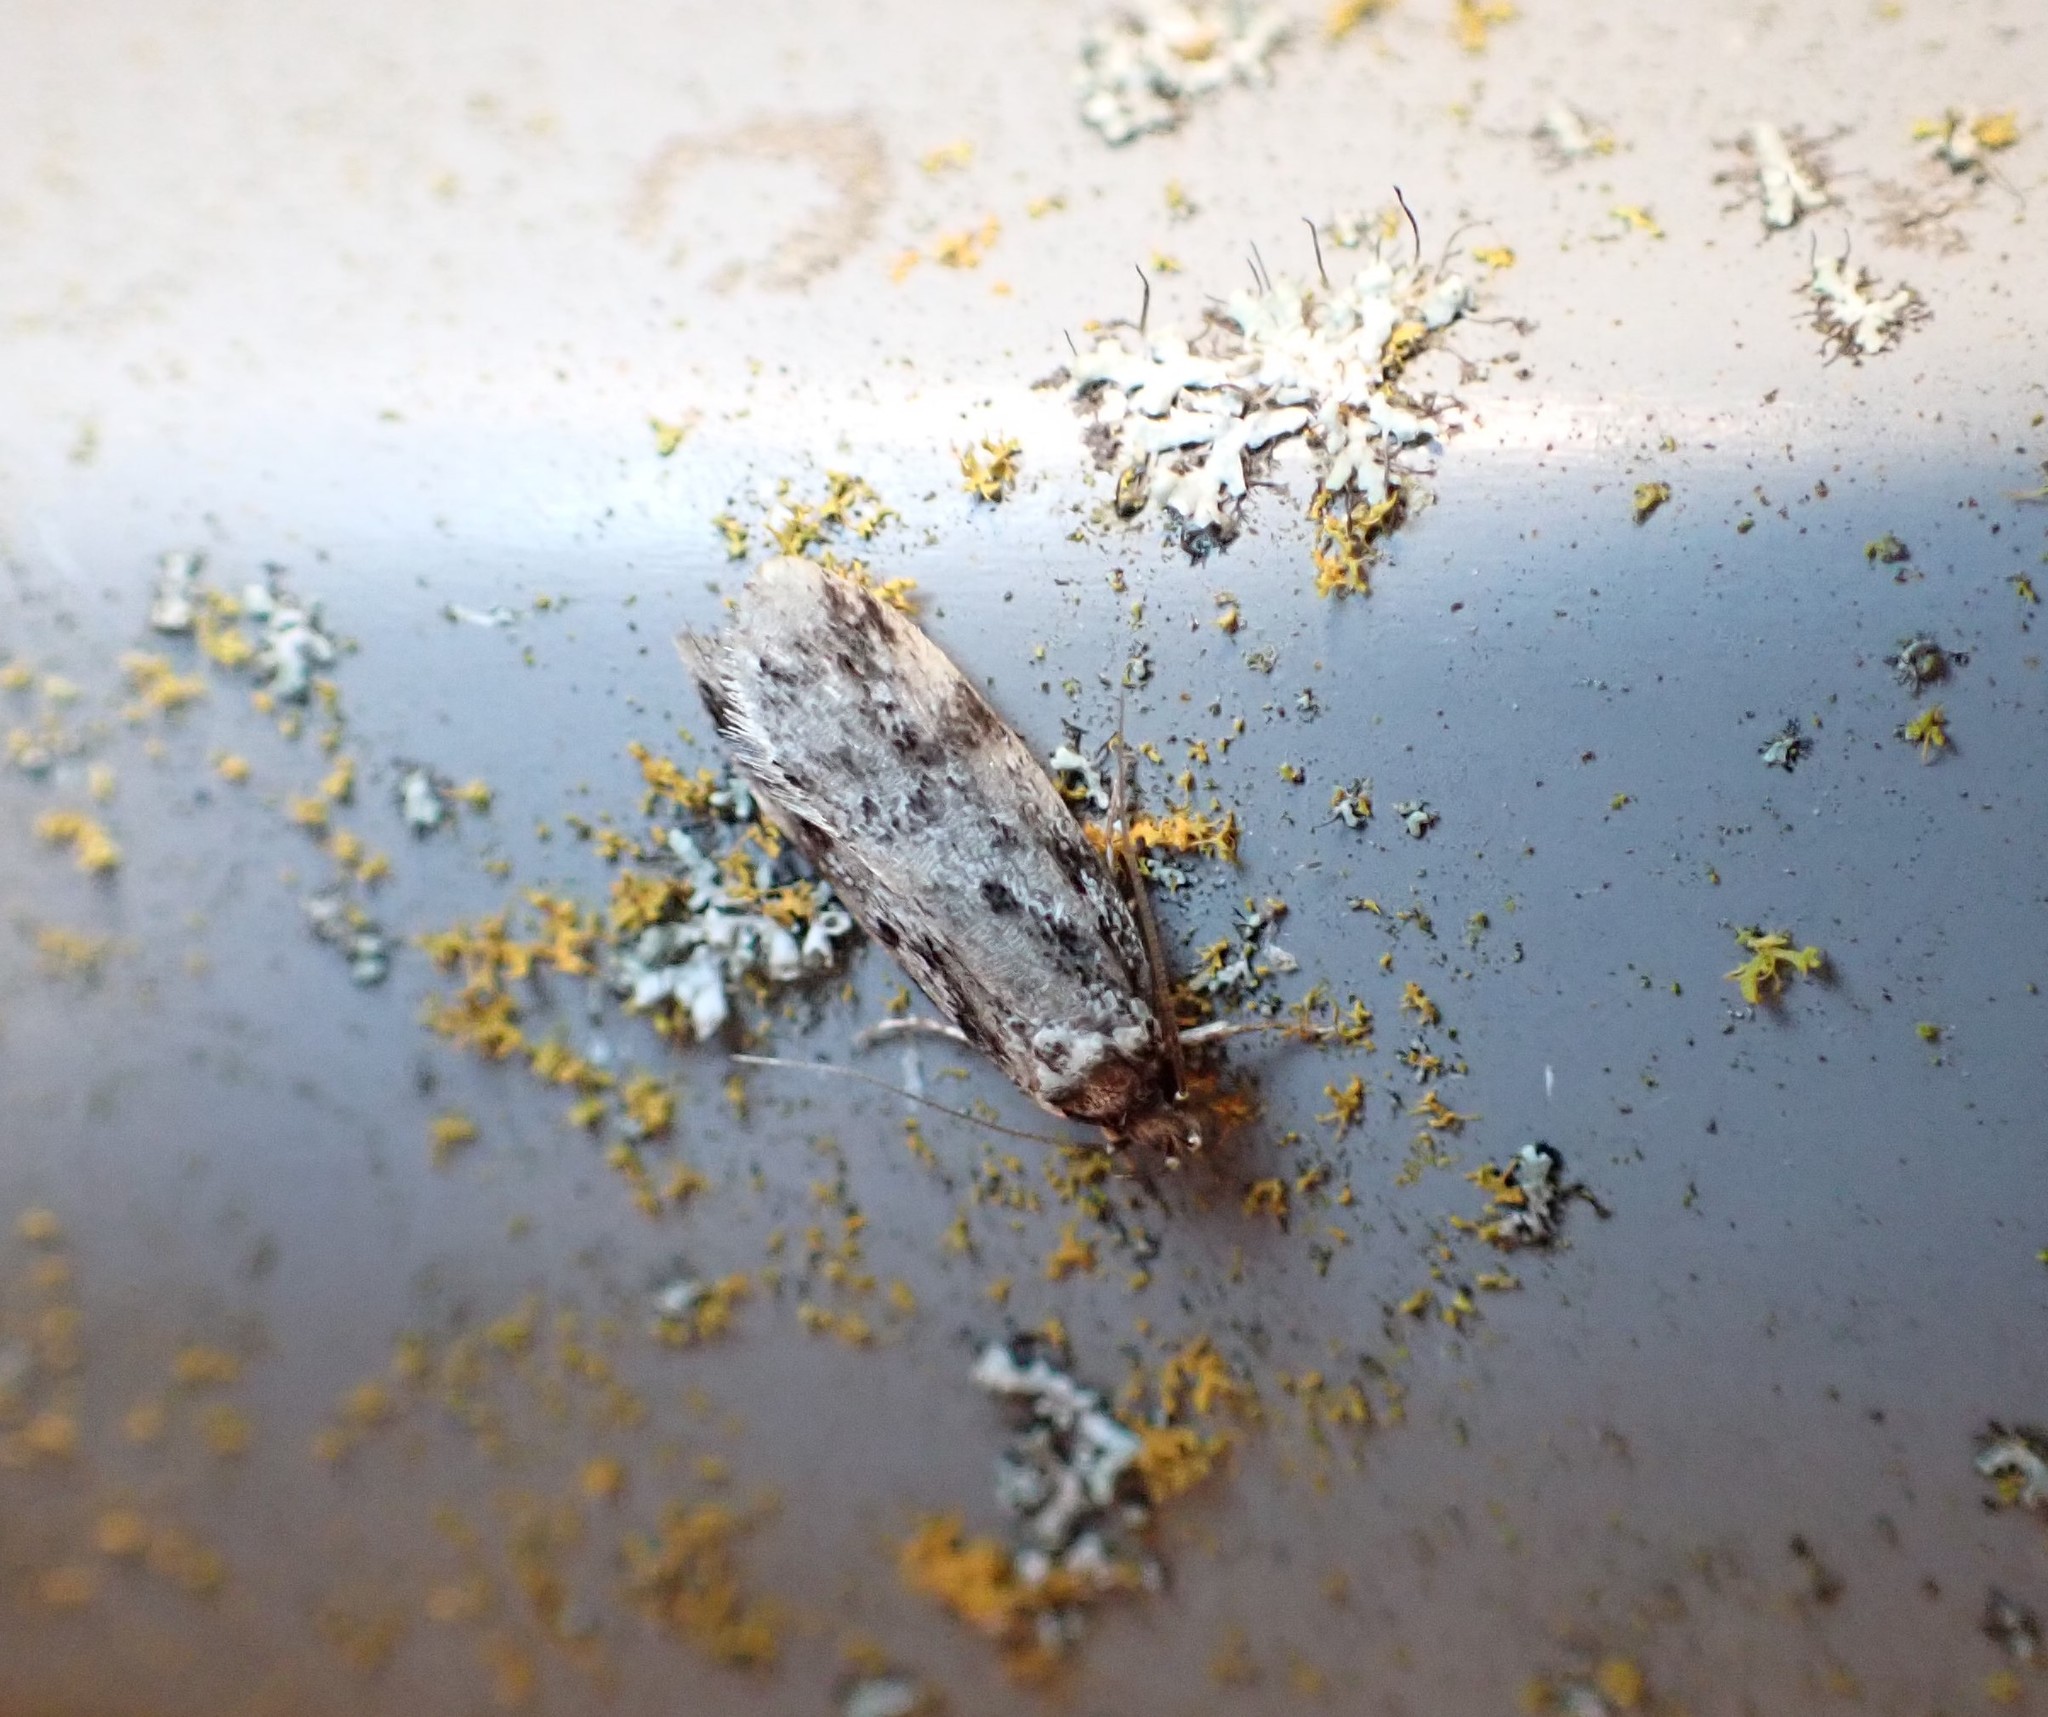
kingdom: Animalia
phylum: Arthropoda
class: Insecta
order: Lepidoptera
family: Oecophoridae
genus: Barea
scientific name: Barea
